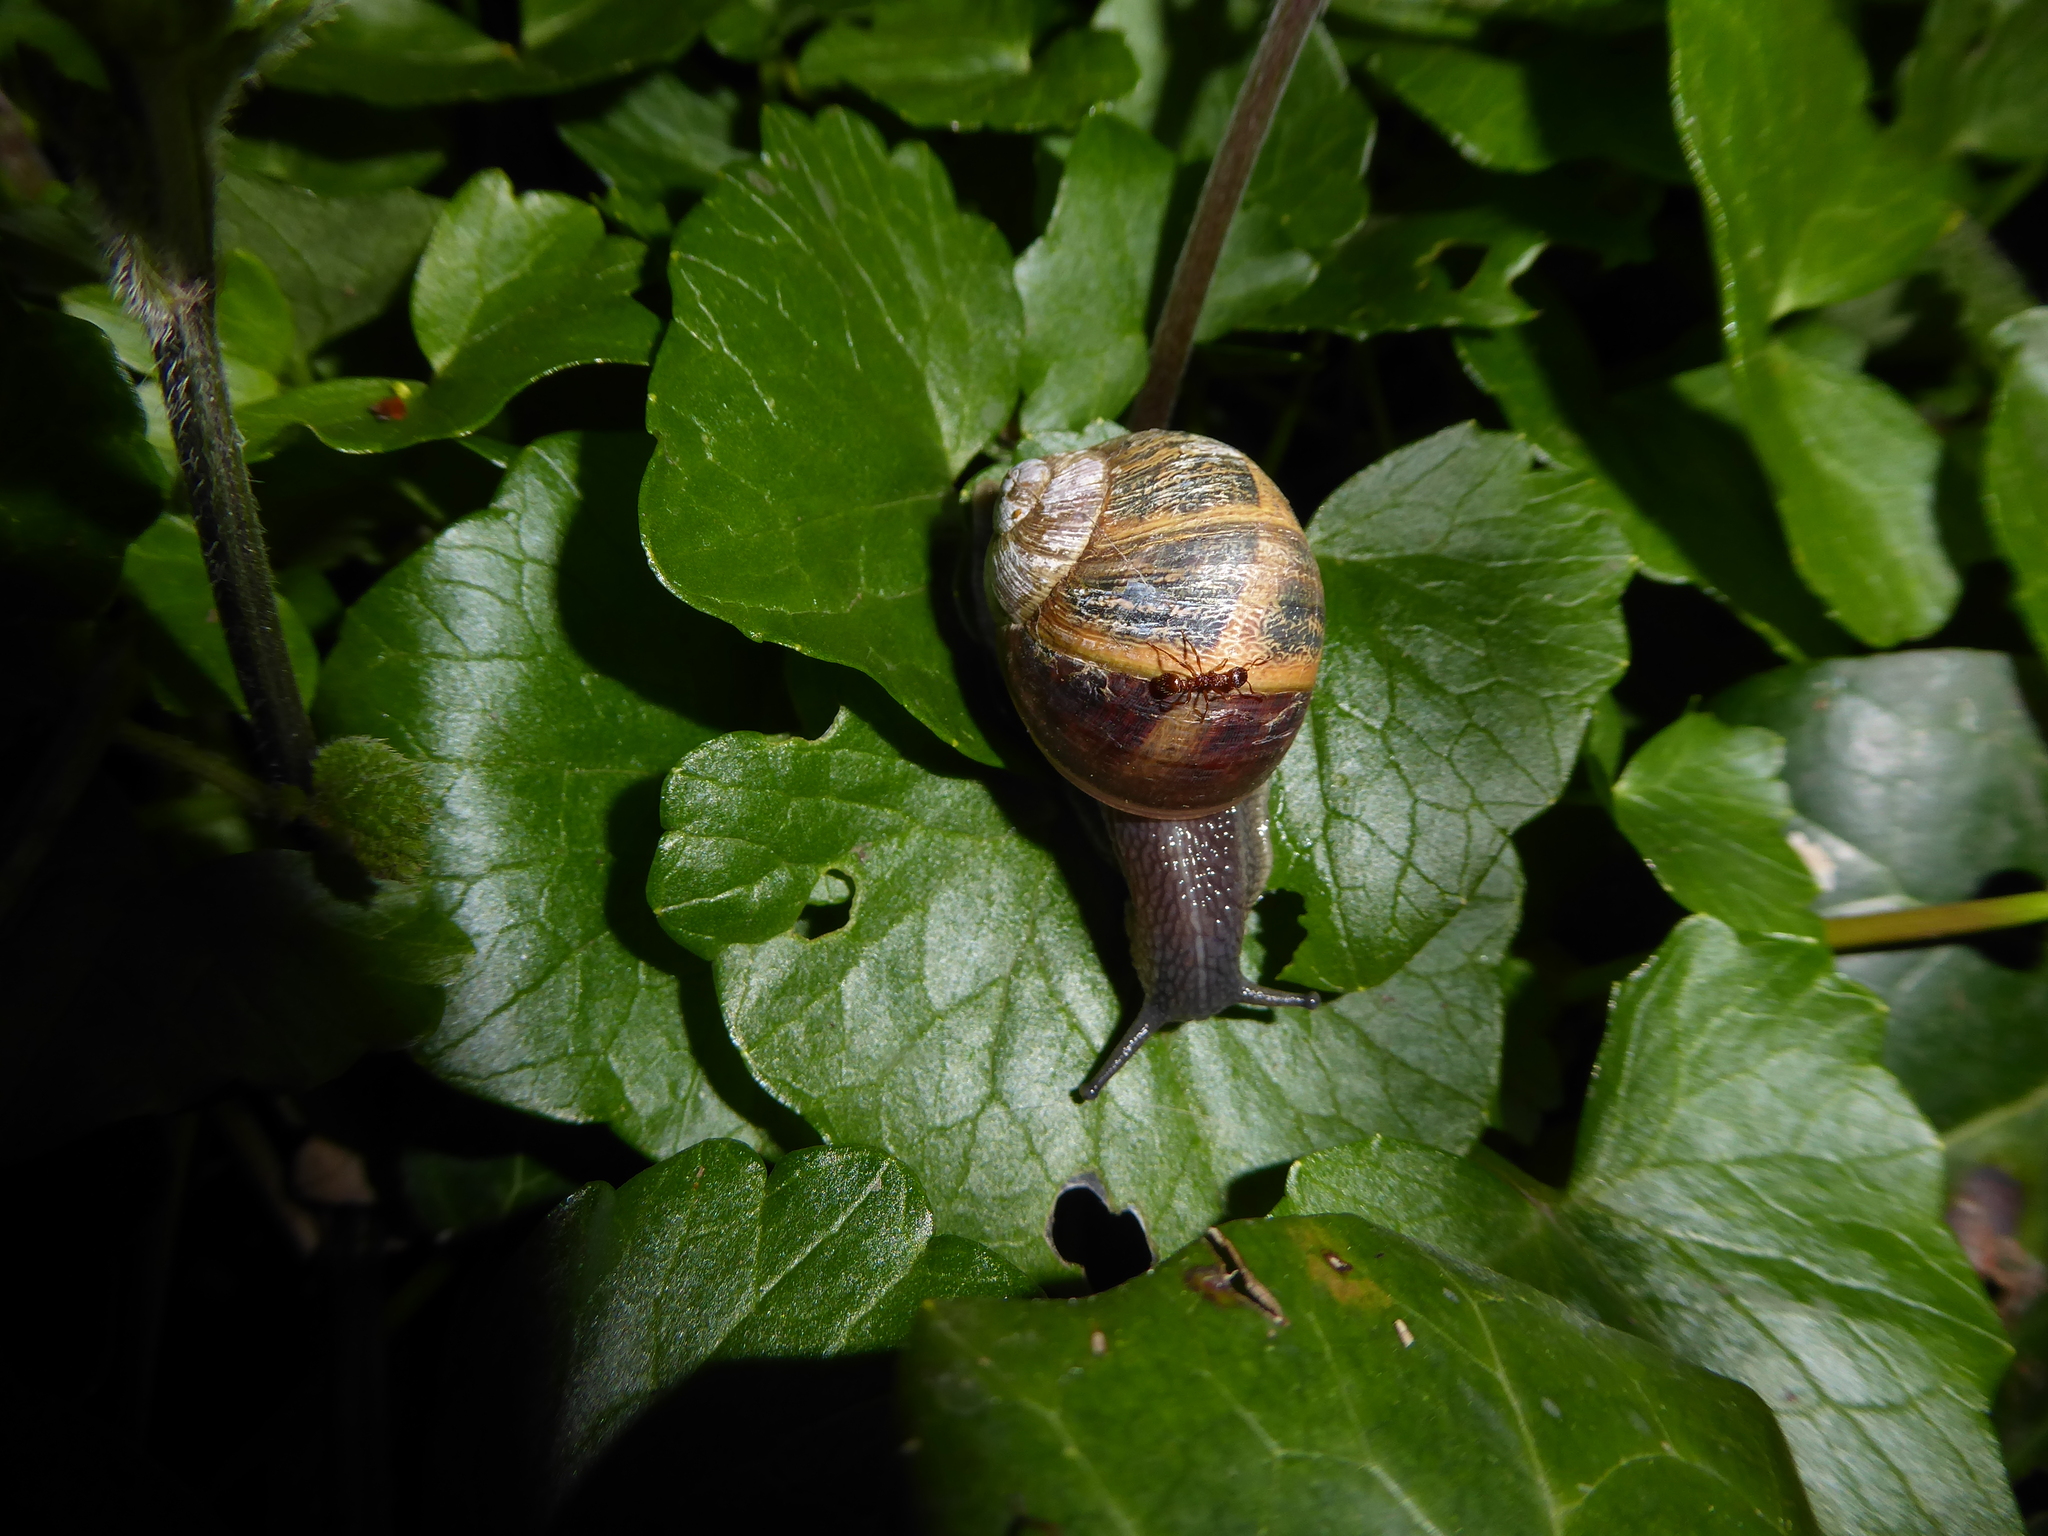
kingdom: Animalia
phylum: Mollusca
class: Gastropoda
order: Stylommatophora
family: Helicidae
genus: Cornu
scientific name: Cornu aspersum
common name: Brown garden snail
